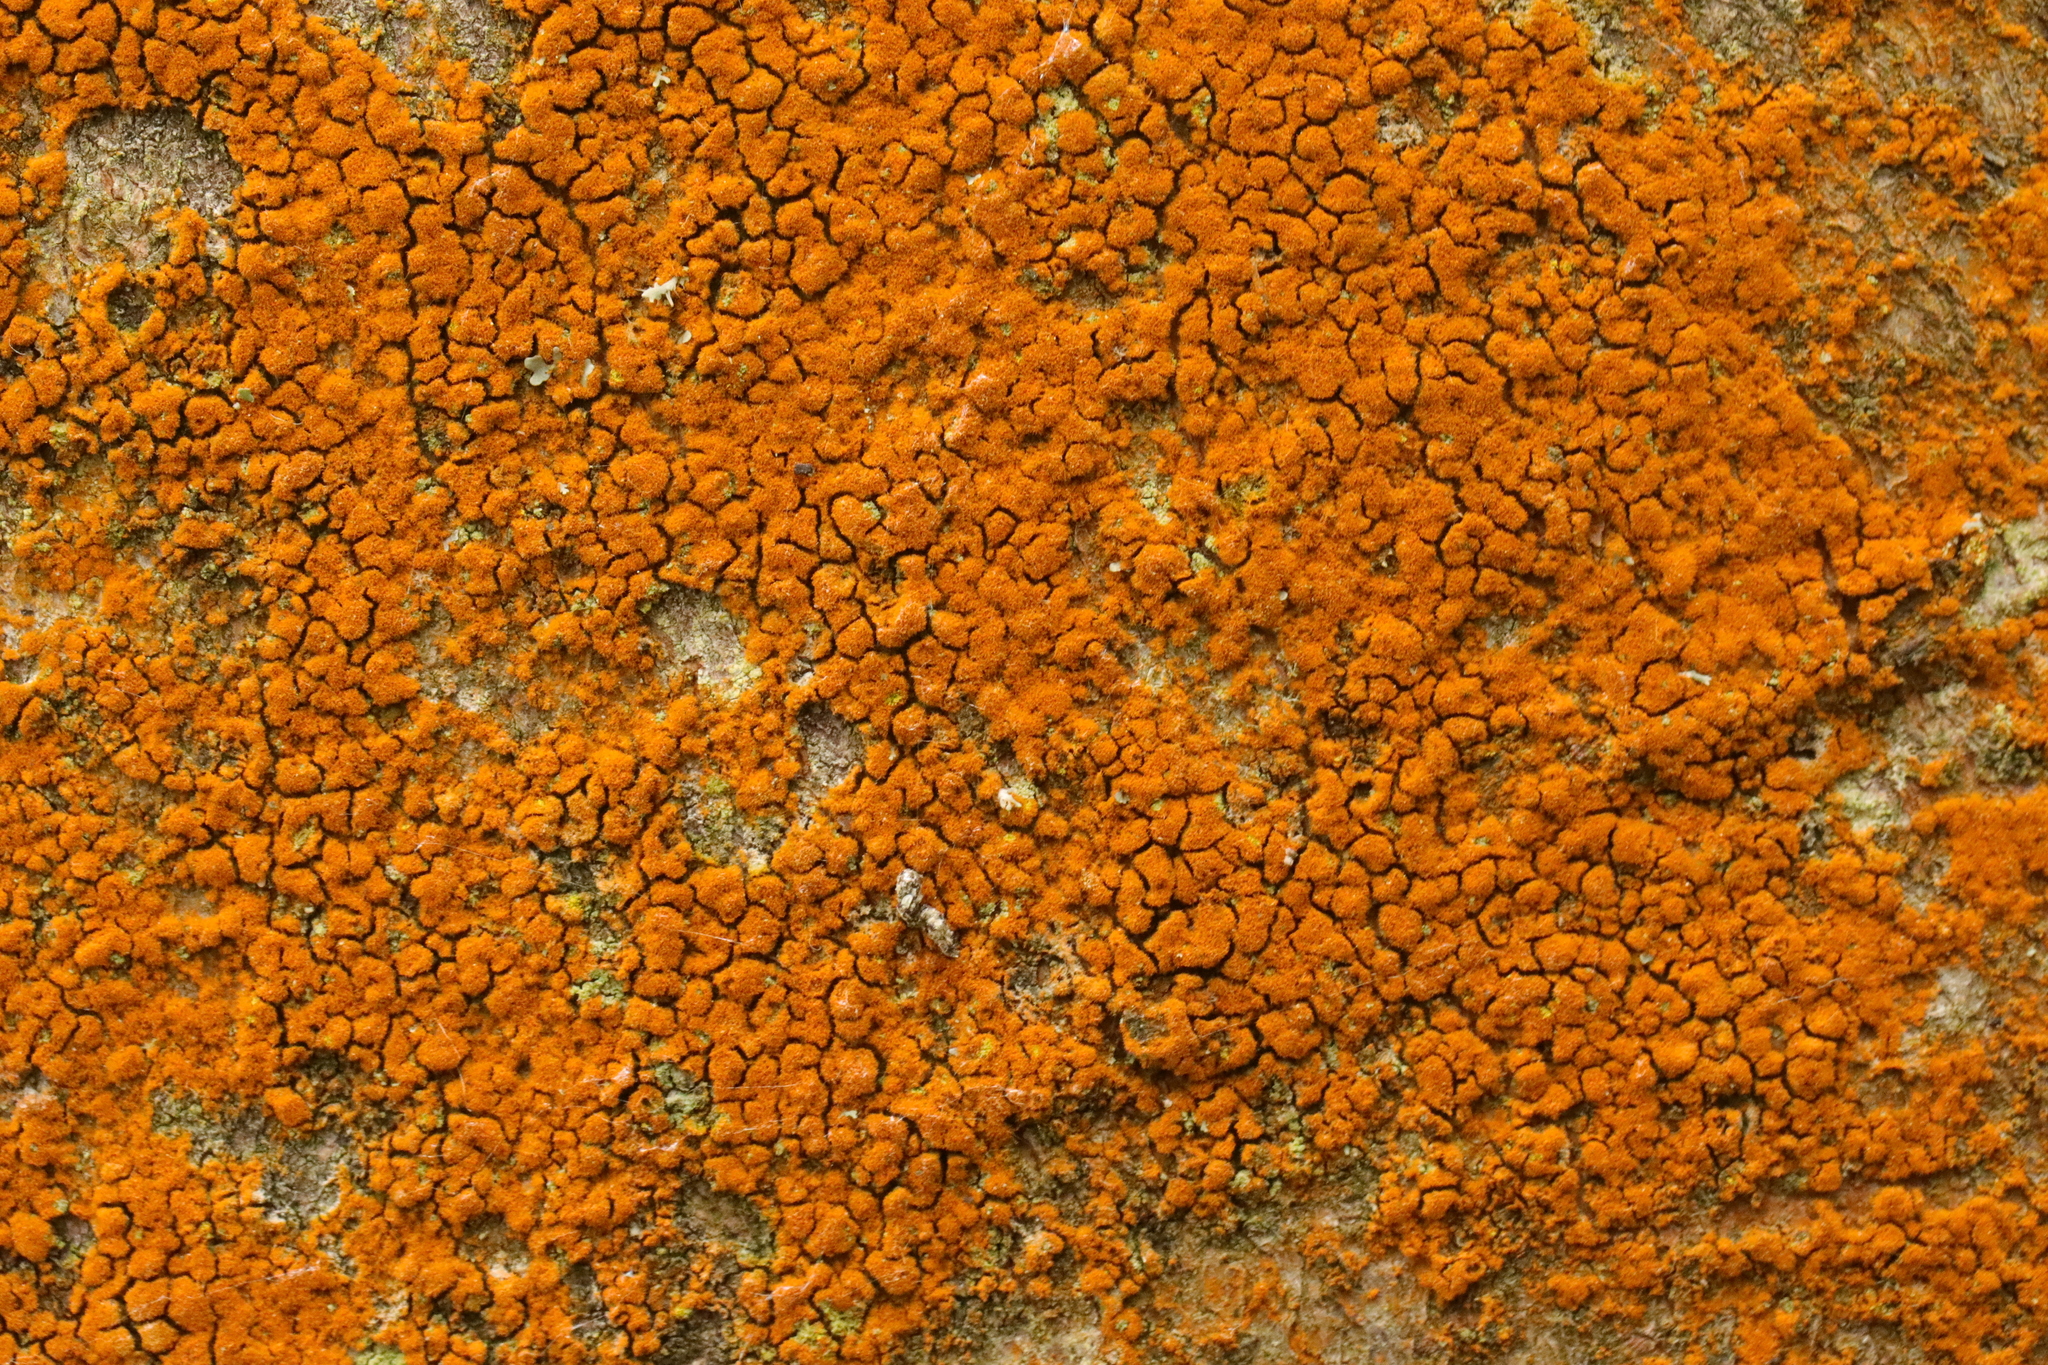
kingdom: Plantae
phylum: Chlorophyta
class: Ulvophyceae
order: Trentepohliales
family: Trentepohliaceae
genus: Trentepohlia
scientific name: Trentepohlia
